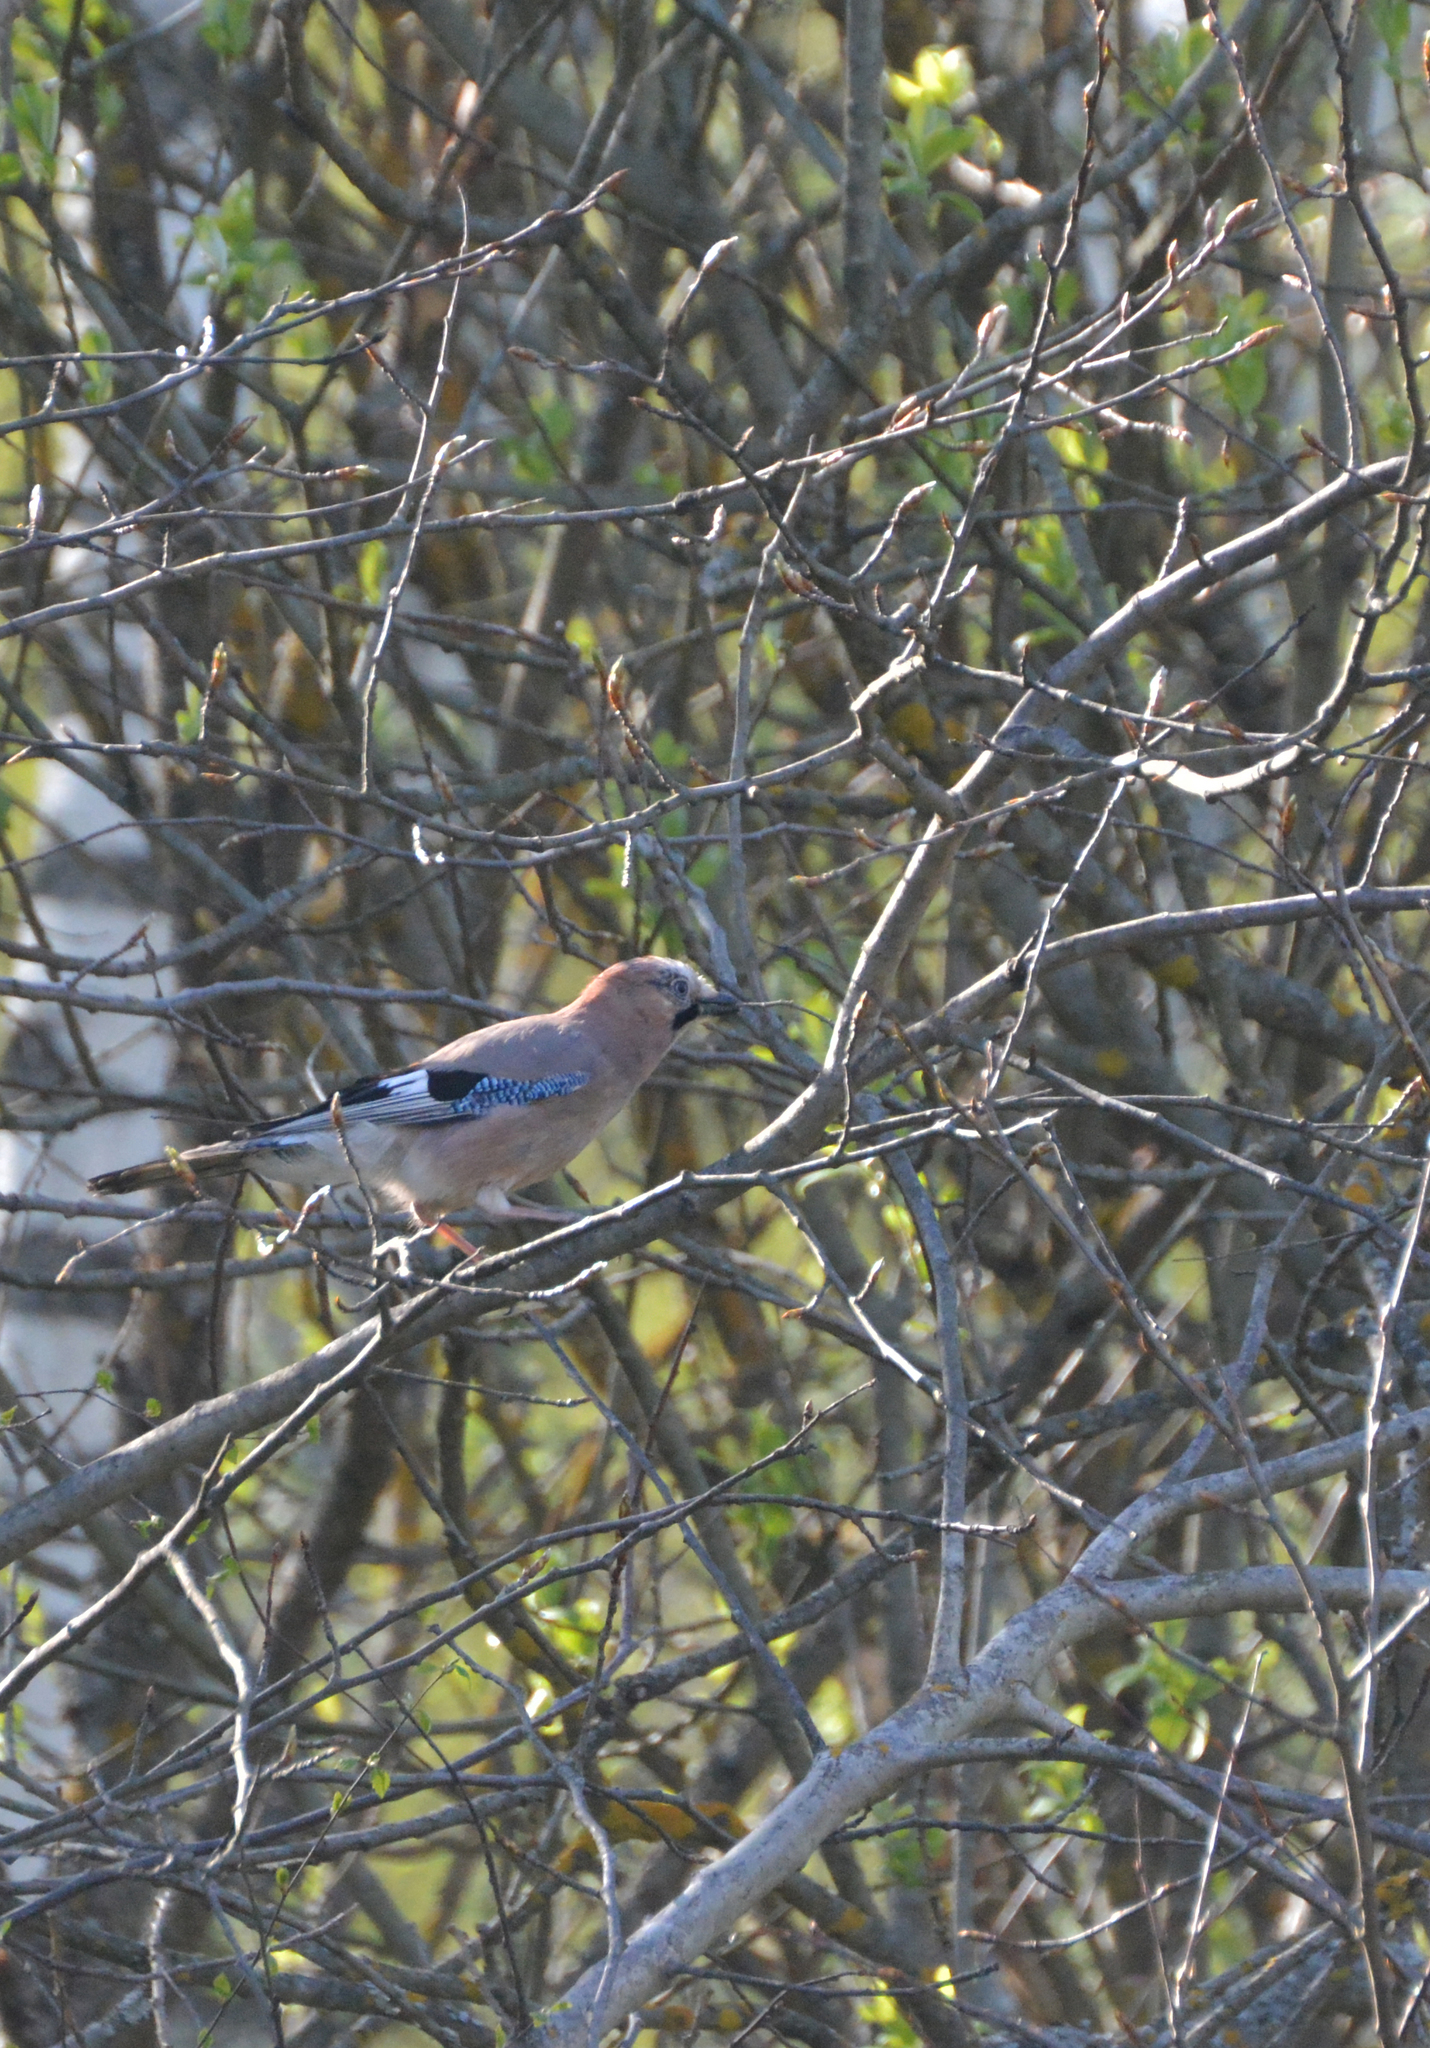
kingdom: Animalia
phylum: Chordata
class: Aves
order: Passeriformes
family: Corvidae
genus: Garrulus
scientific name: Garrulus glandarius
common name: Eurasian jay
